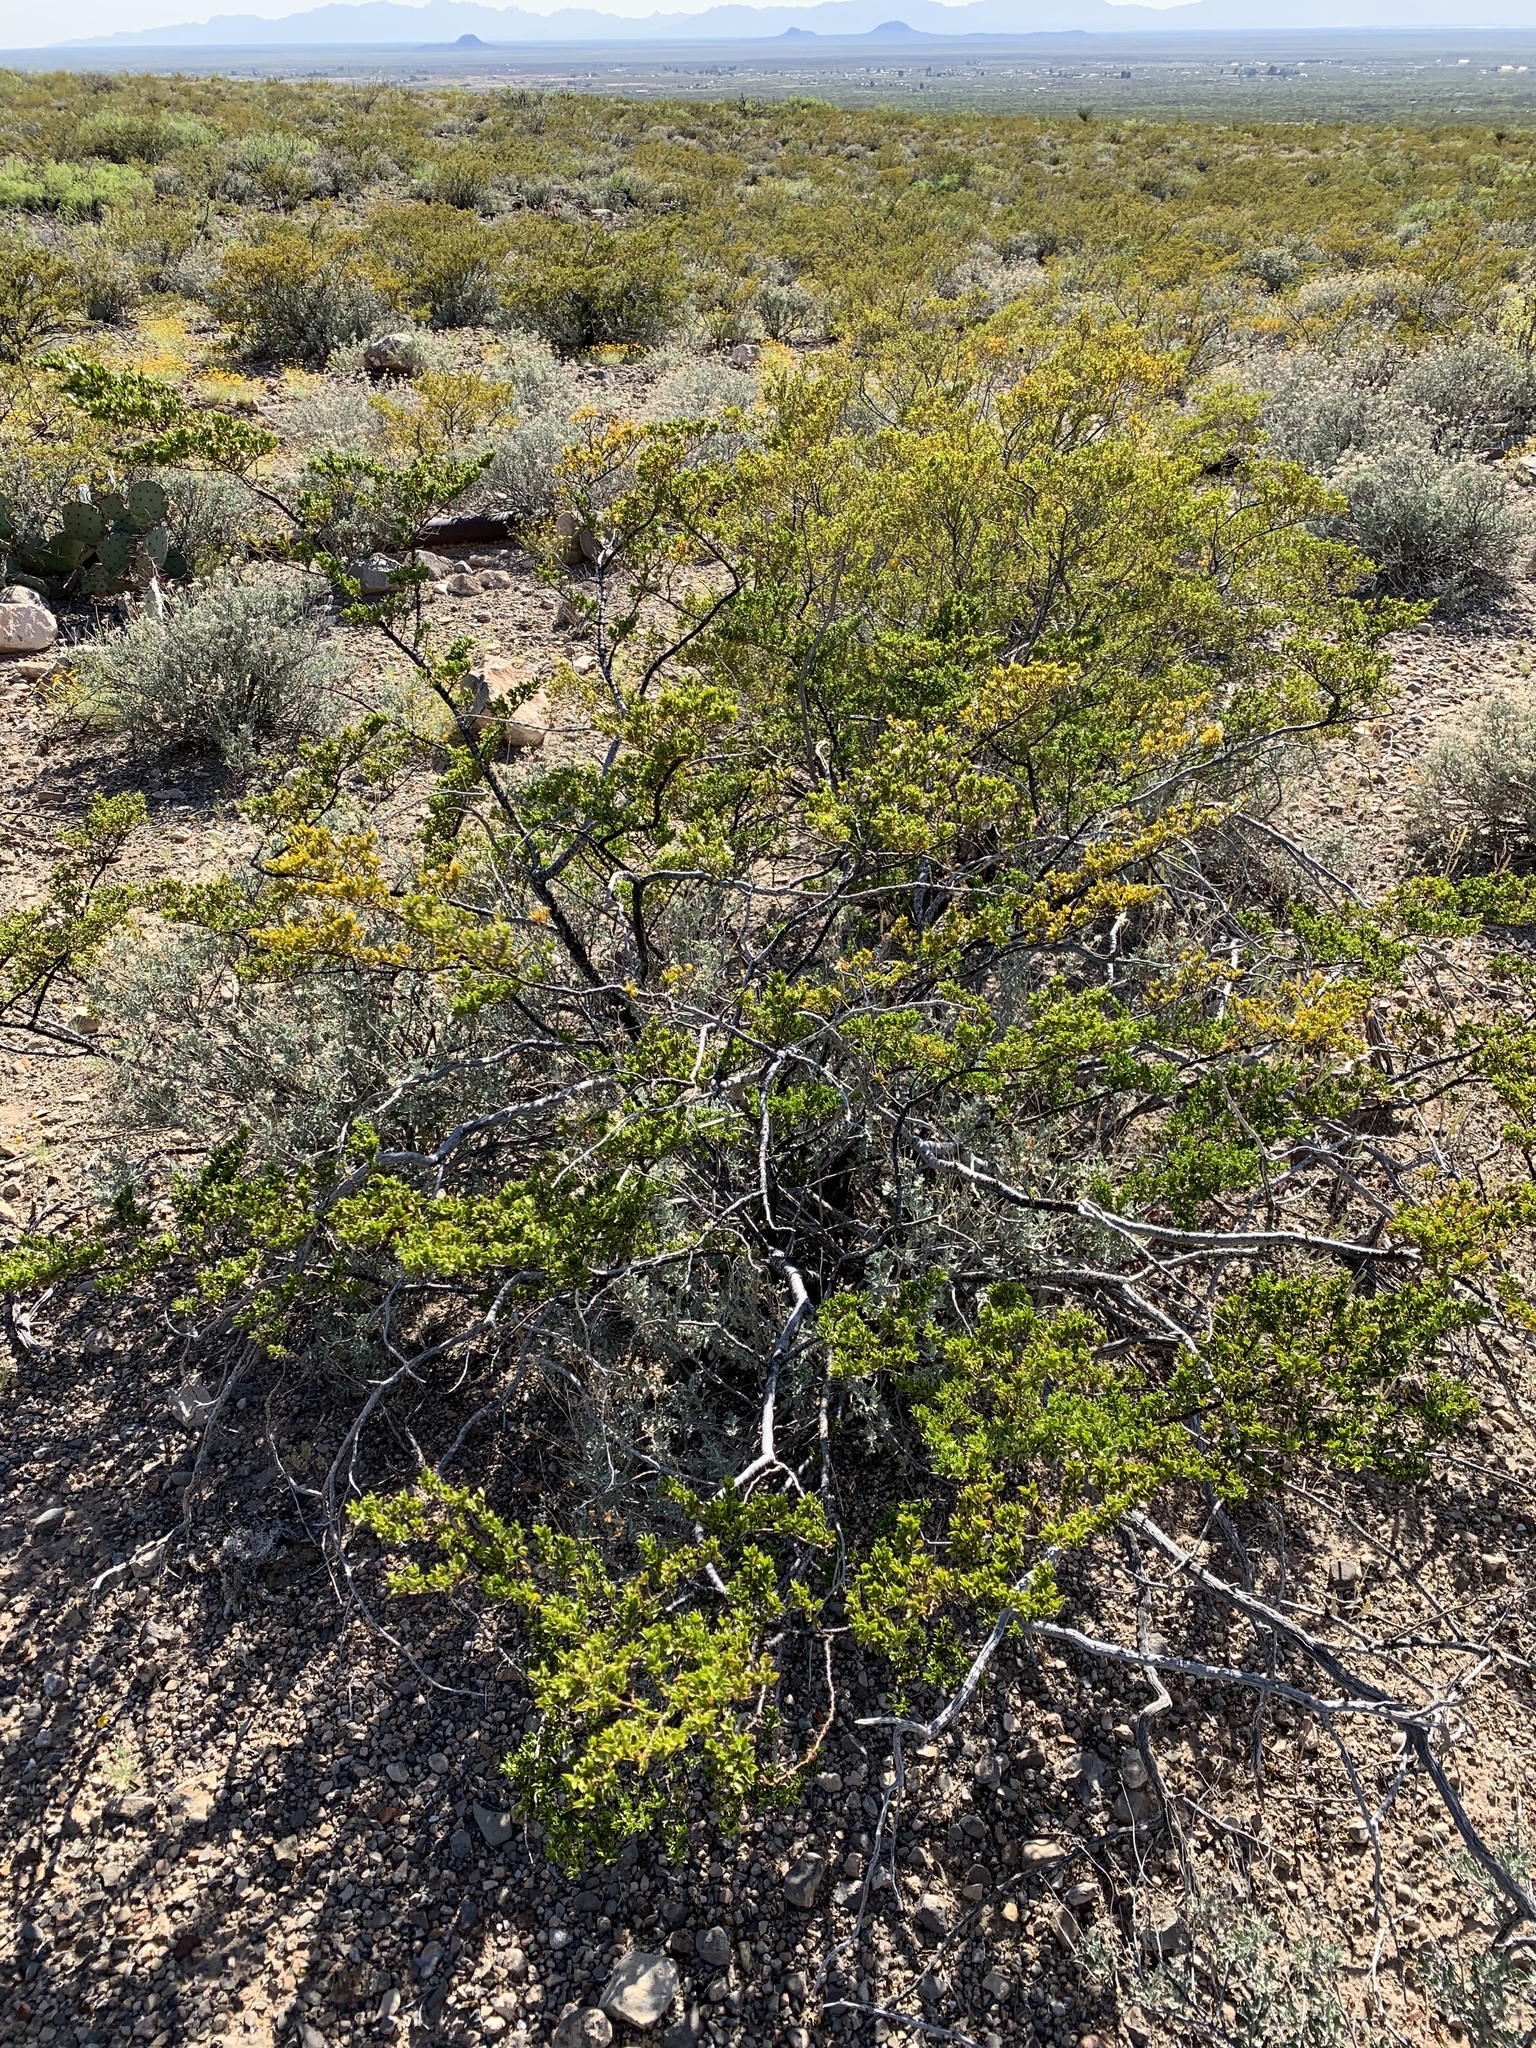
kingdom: Plantae
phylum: Tracheophyta
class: Magnoliopsida
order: Zygophyllales
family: Zygophyllaceae
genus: Larrea
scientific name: Larrea tridentata
